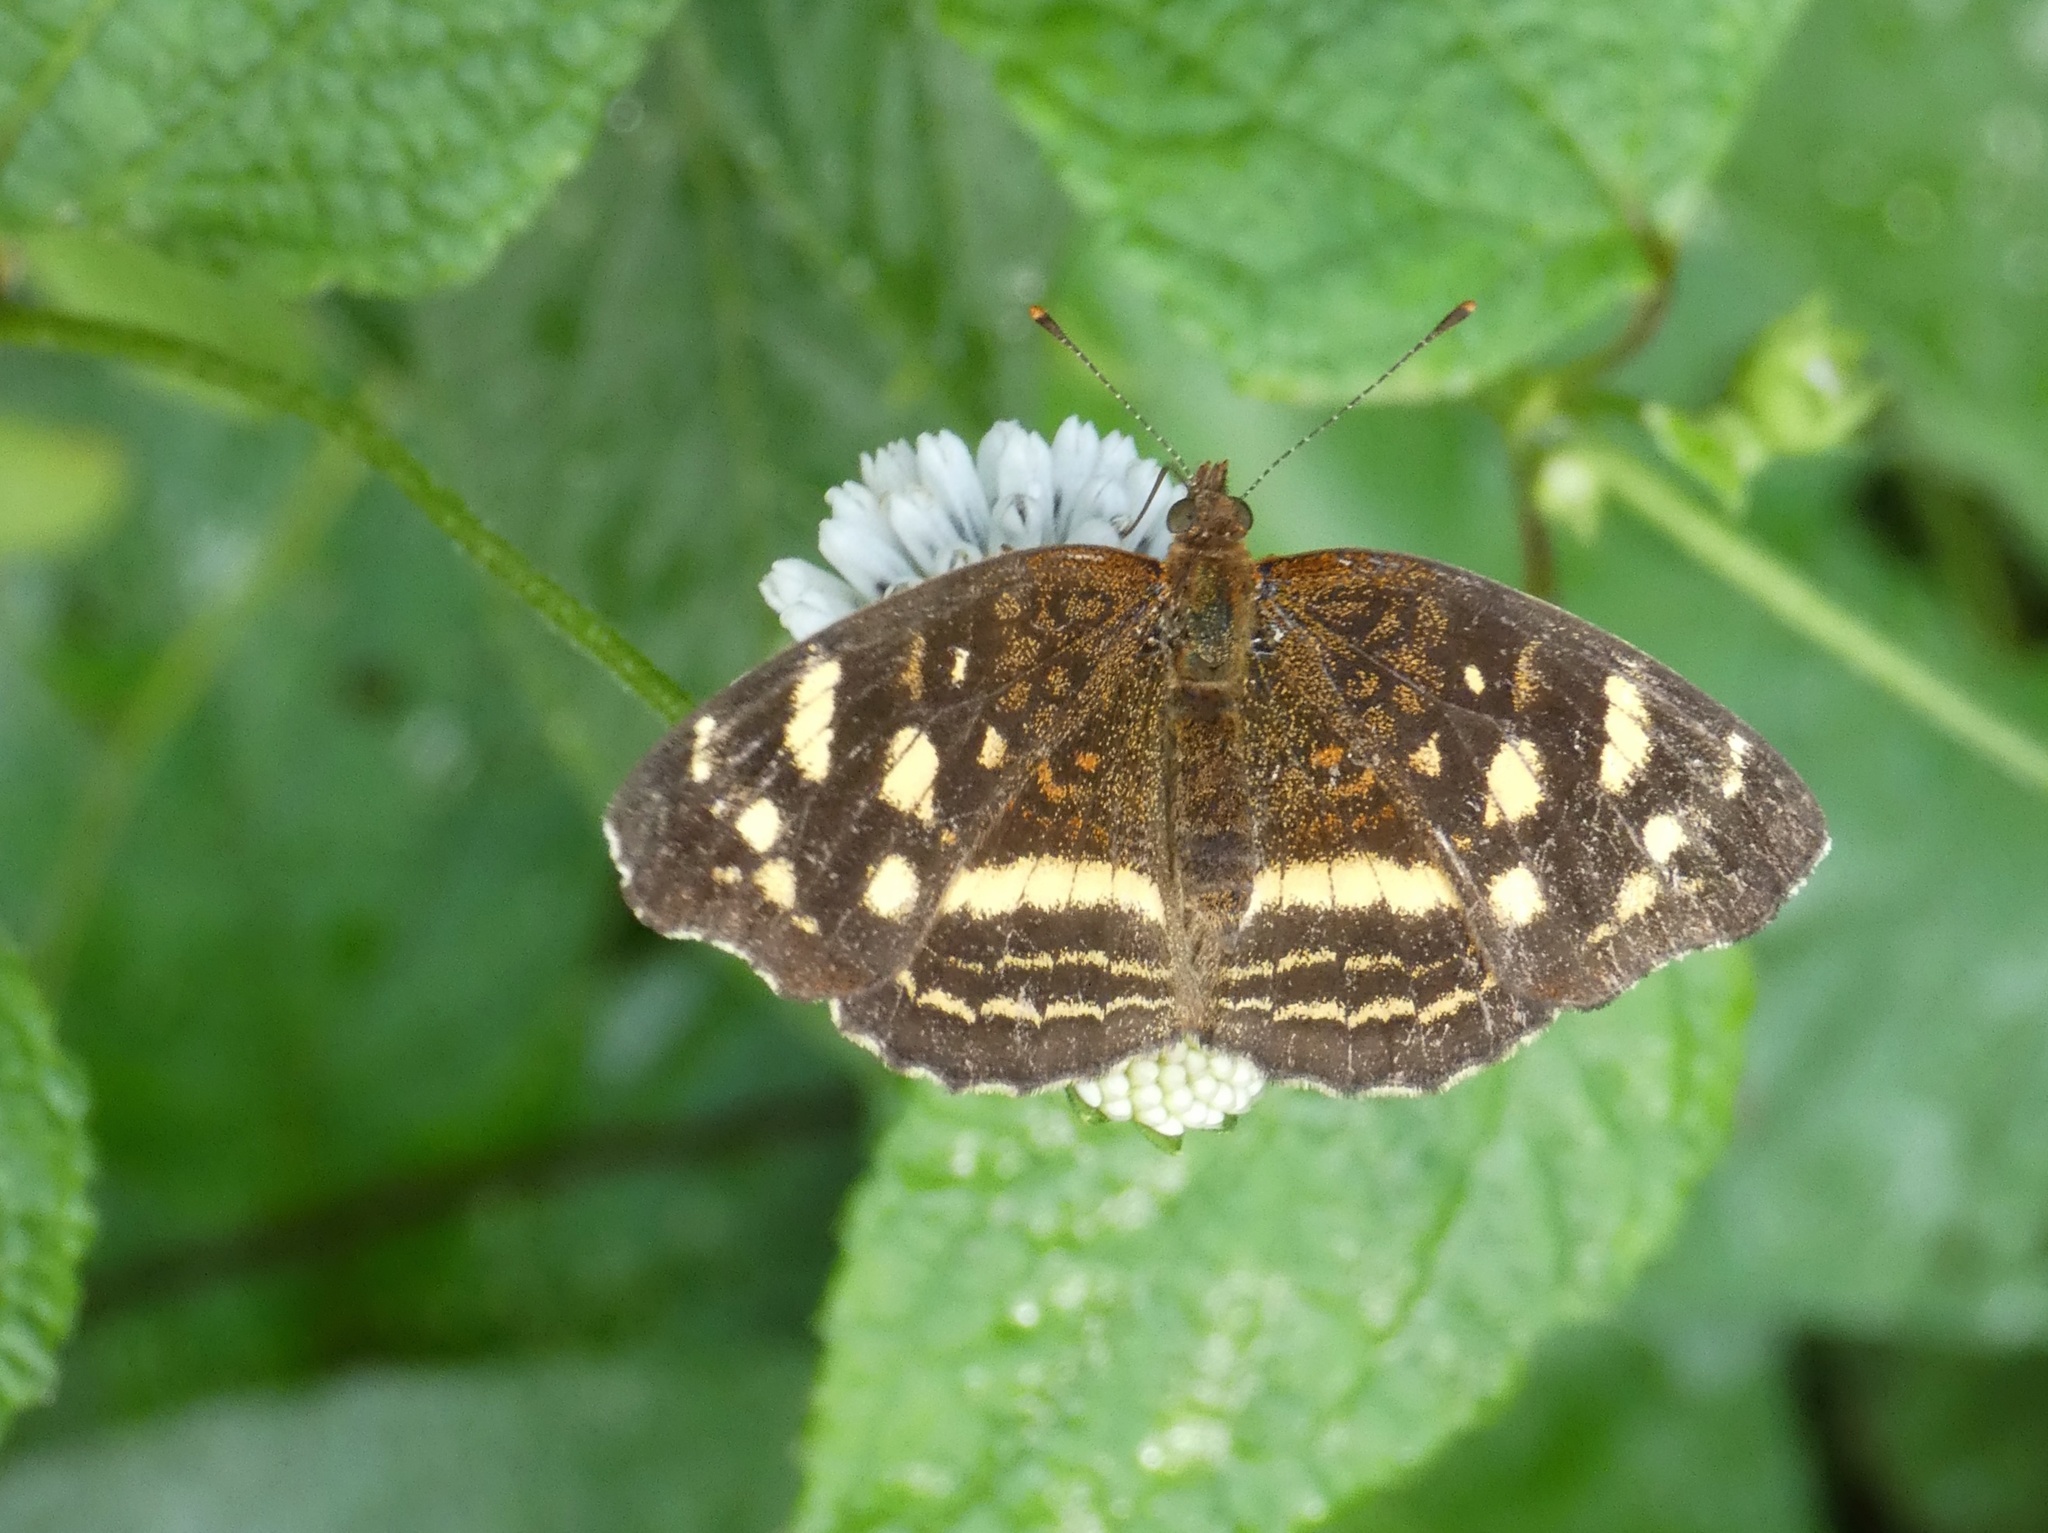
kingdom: Animalia
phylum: Arthropoda
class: Insecta
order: Lepidoptera
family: Nymphalidae
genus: Anthanassa
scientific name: Anthanassa tulcis
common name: Pale-banded crescent
